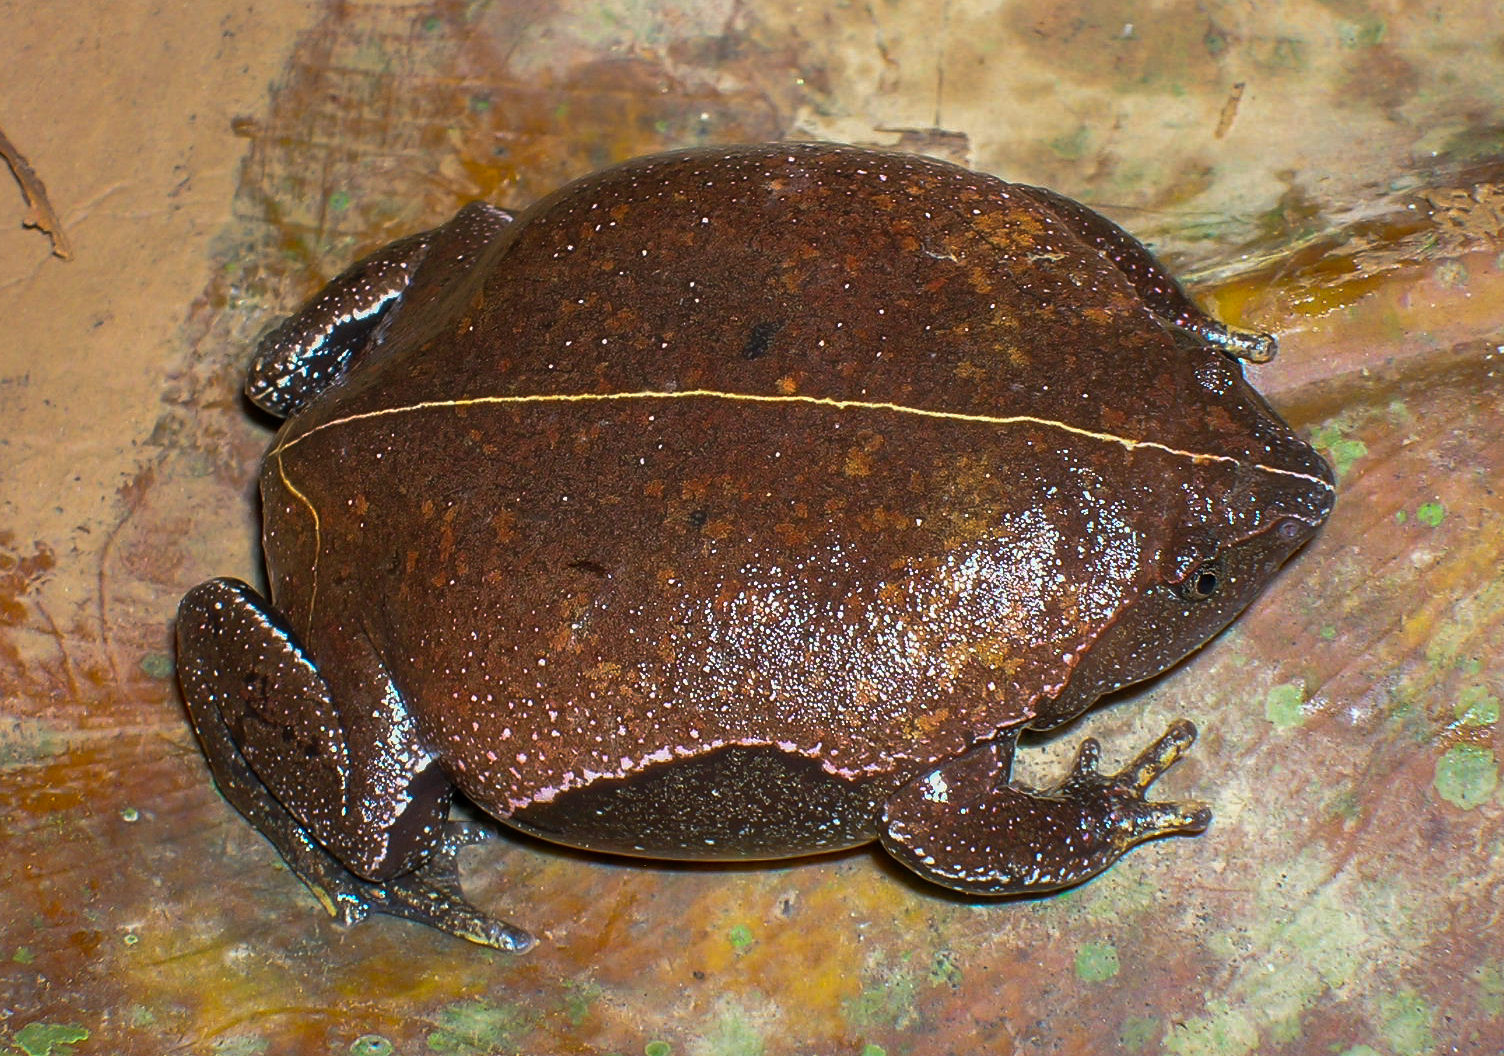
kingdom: Animalia
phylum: Chordata
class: Amphibia
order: Anura
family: Microhylidae
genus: Ctenophryne
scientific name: Ctenophryne geayi
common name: Brown egg frog
